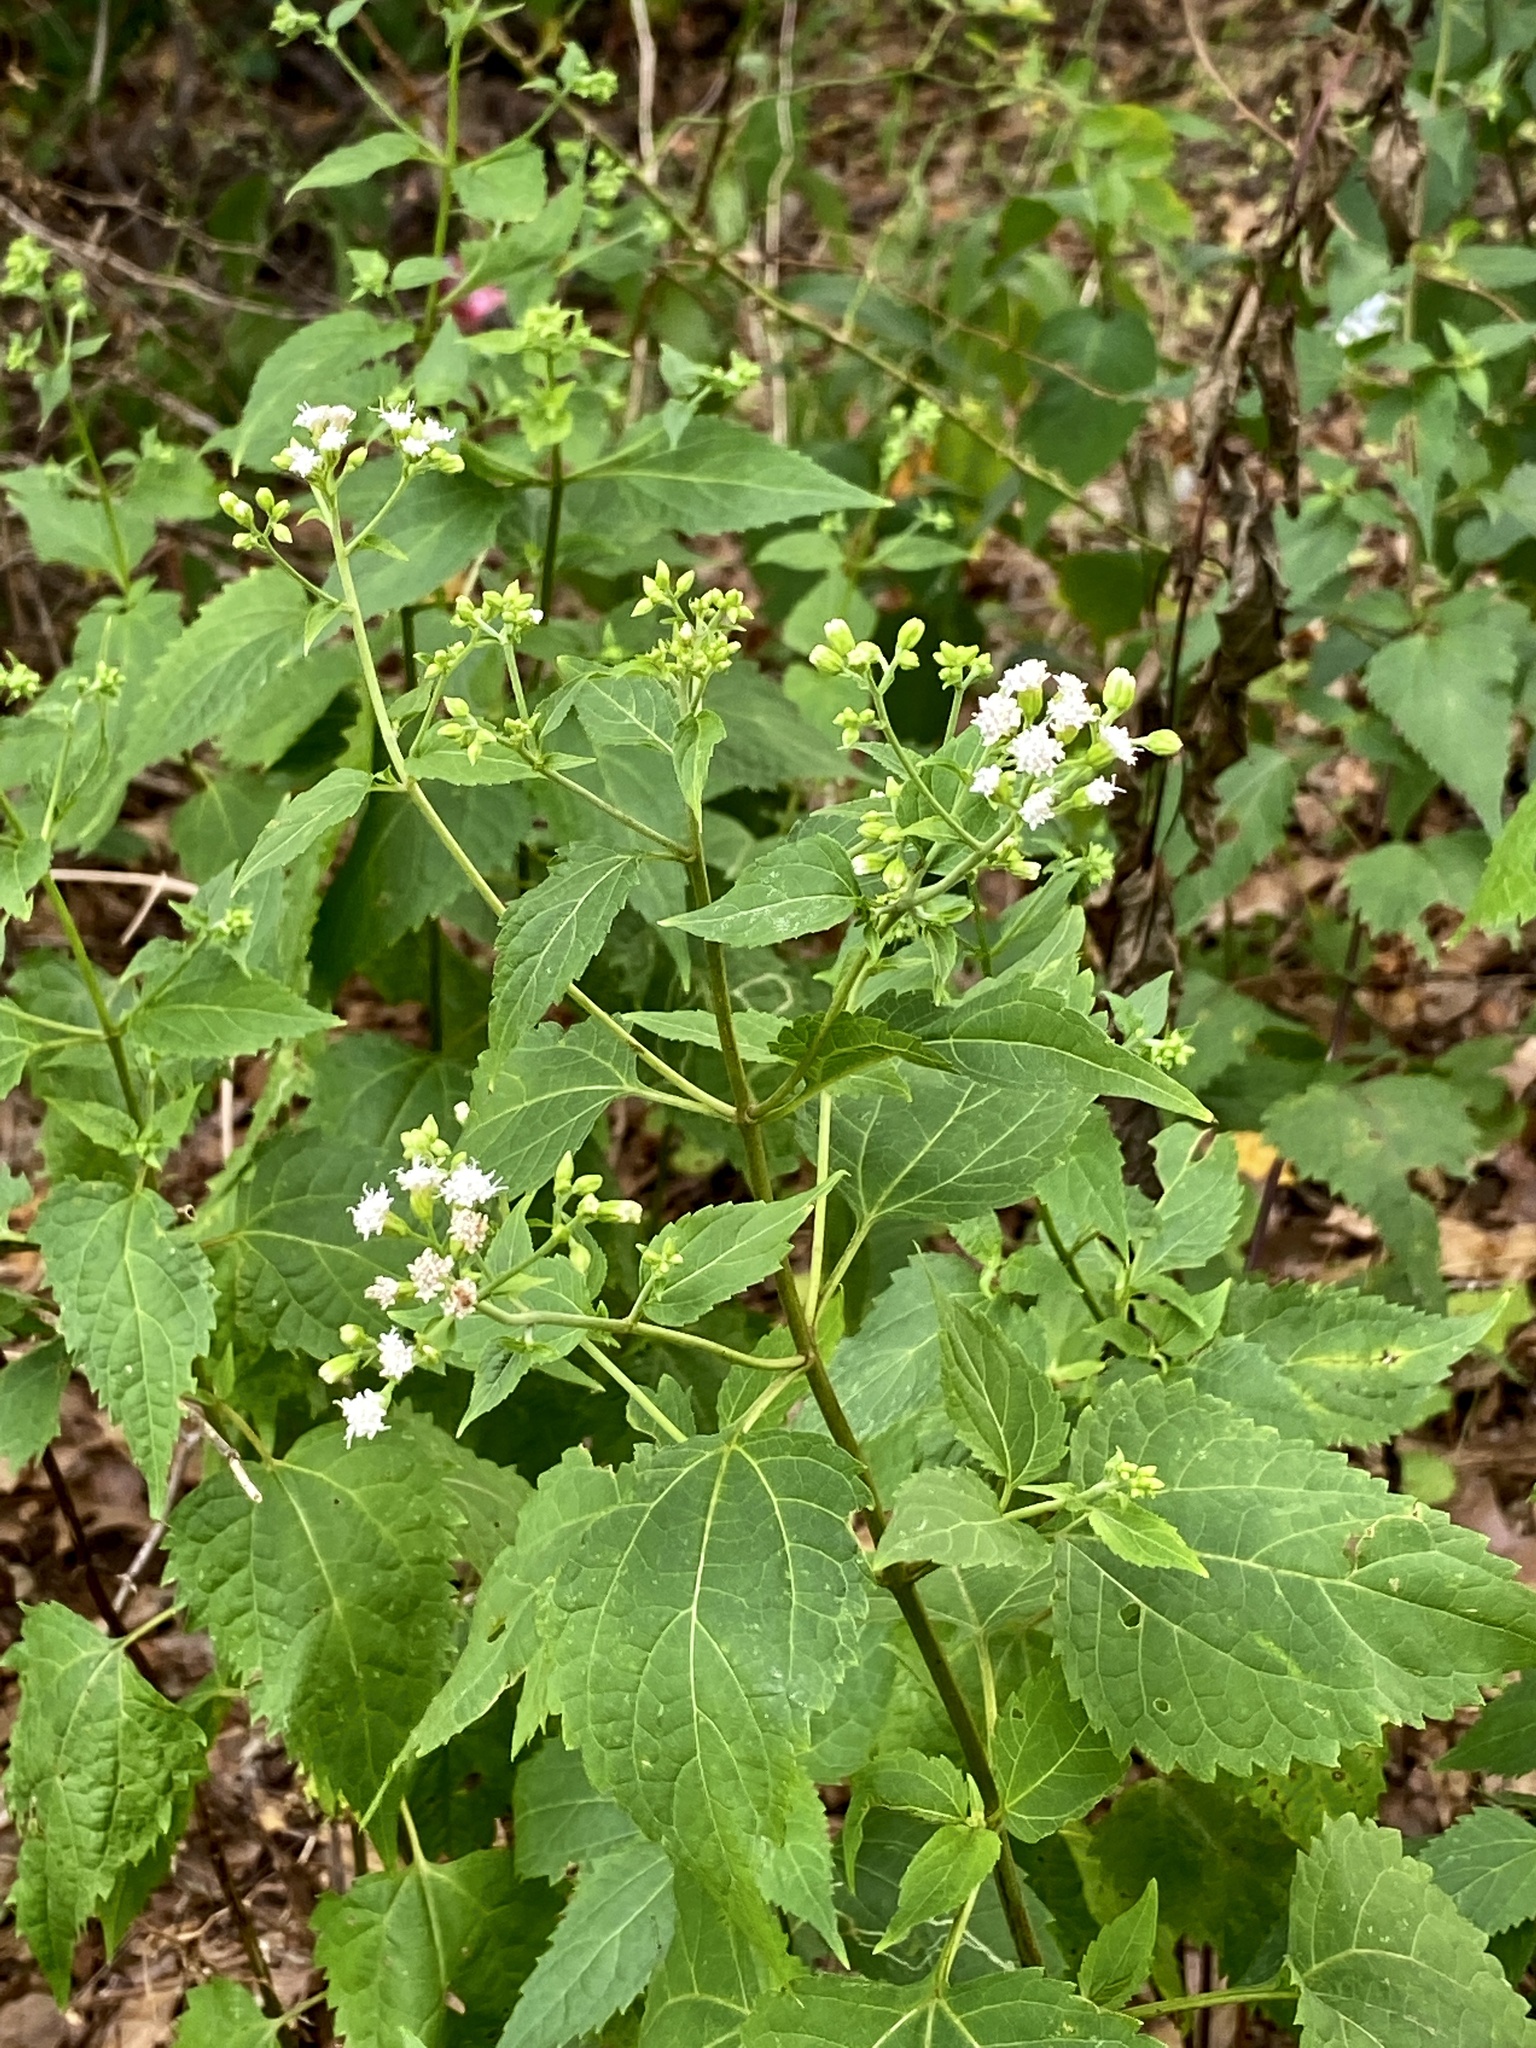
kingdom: Plantae
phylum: Tracheophyta
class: Magnoliopsida
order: Asterales
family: Asteraceae
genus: Ageratina
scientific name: Ageratina altissima
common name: White snakeroot
